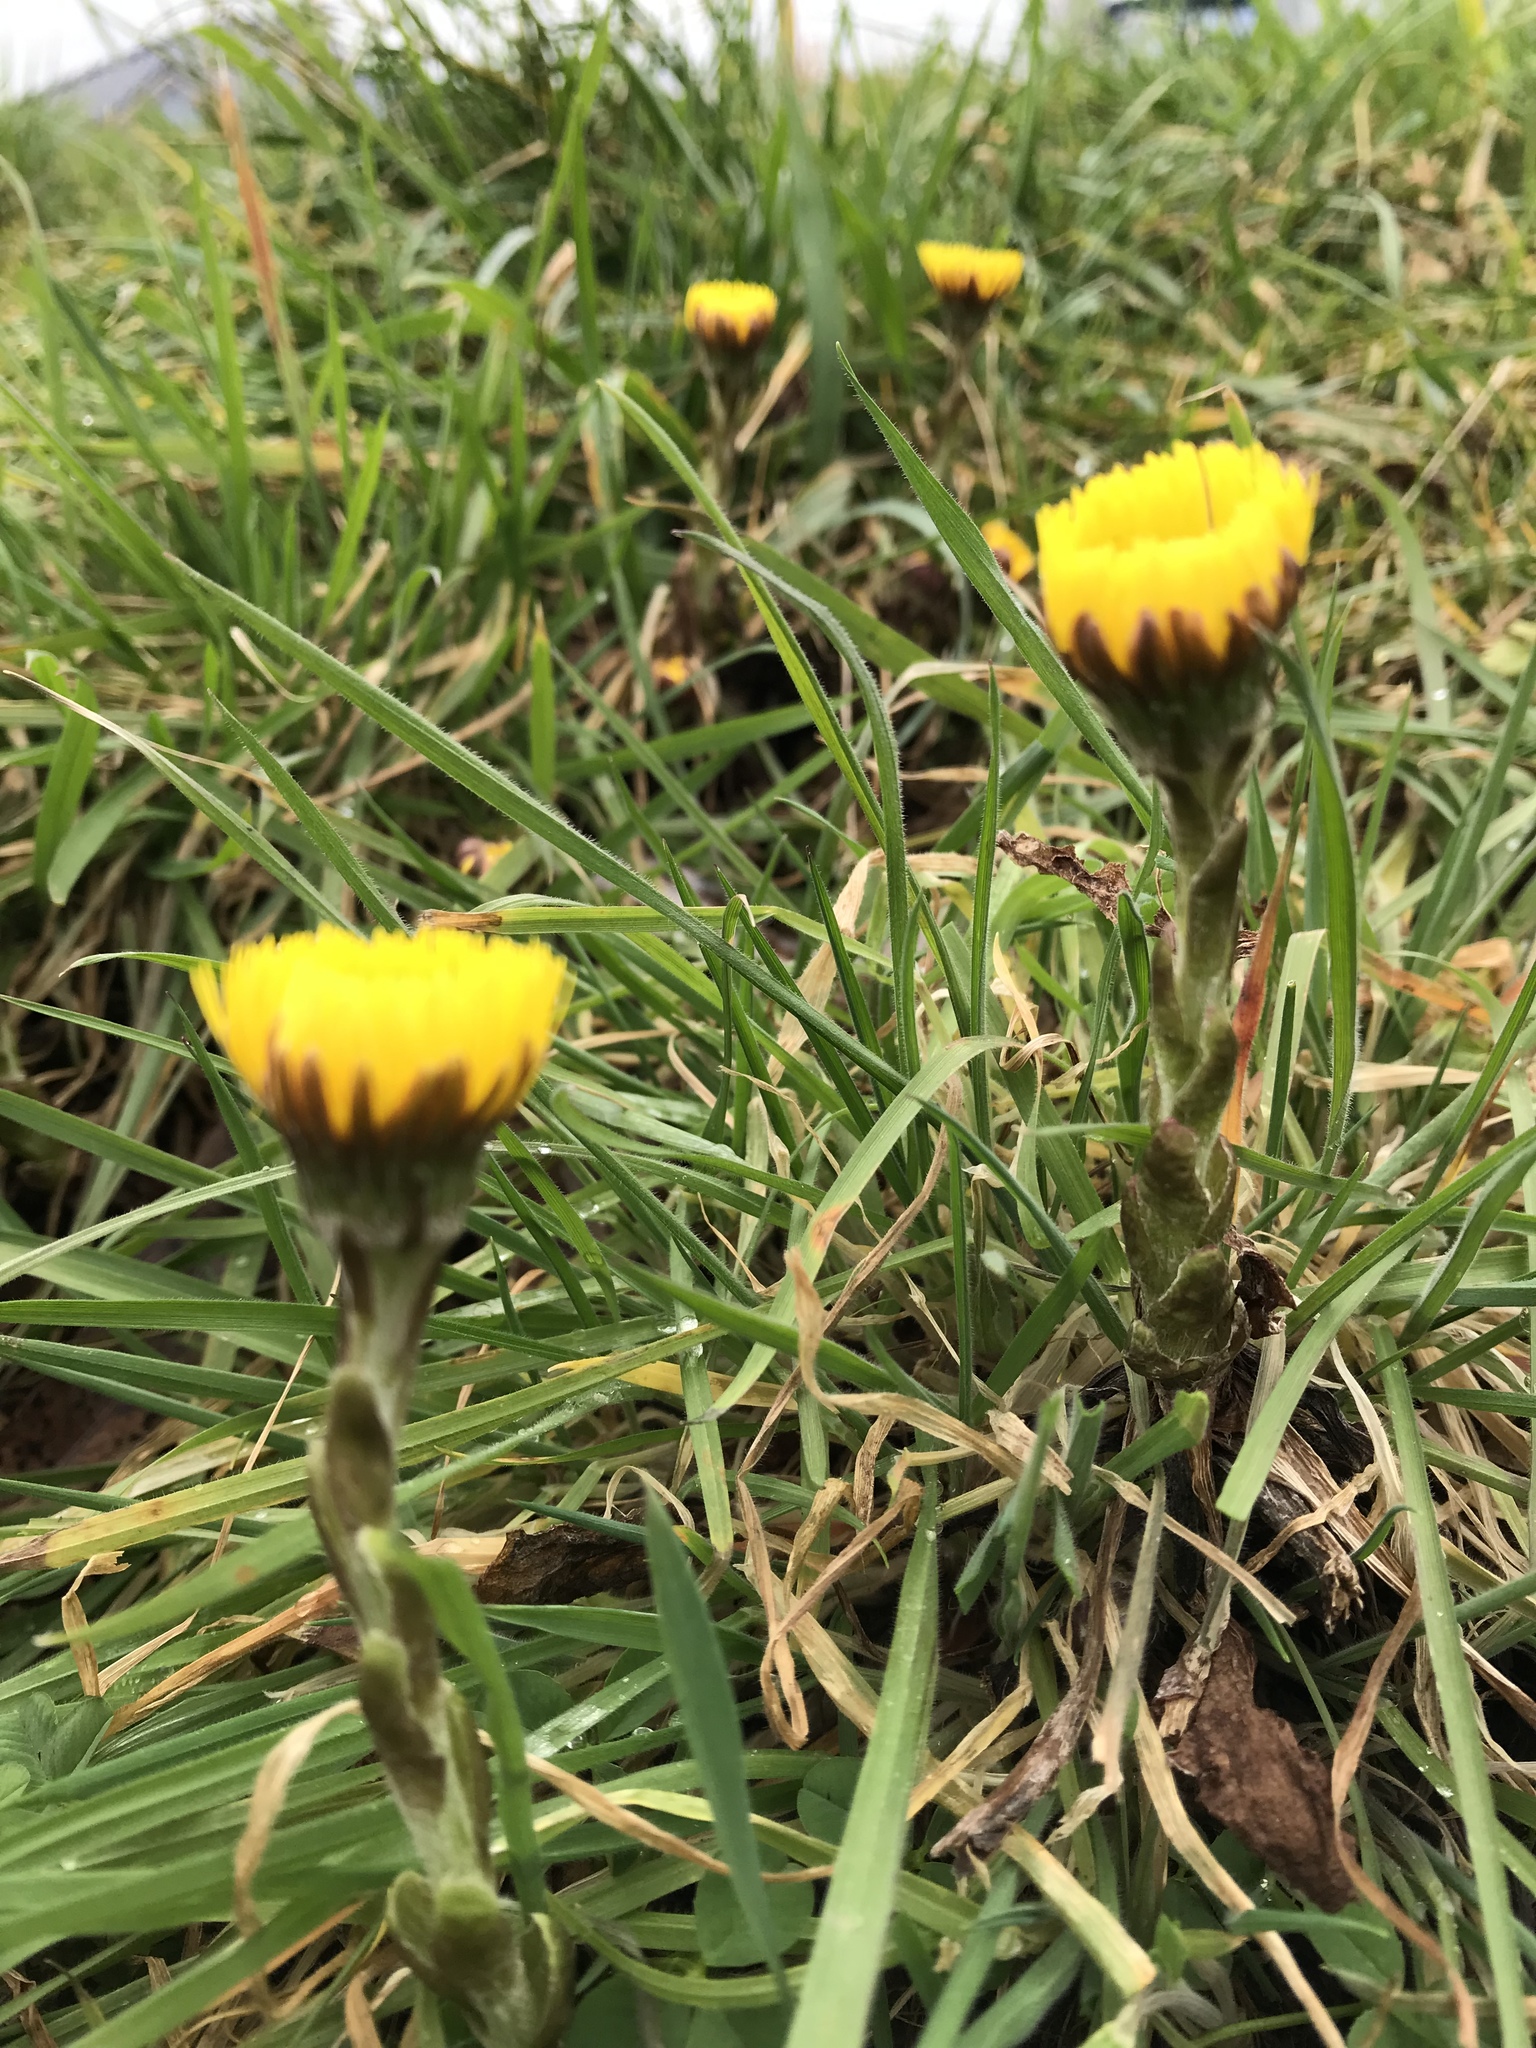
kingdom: Plantae
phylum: Tracheophyta
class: Magnoliopsida
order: Asterales
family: Asteraceae
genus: Tussilago
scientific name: Tussilago farfara
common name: Coltsfoot
